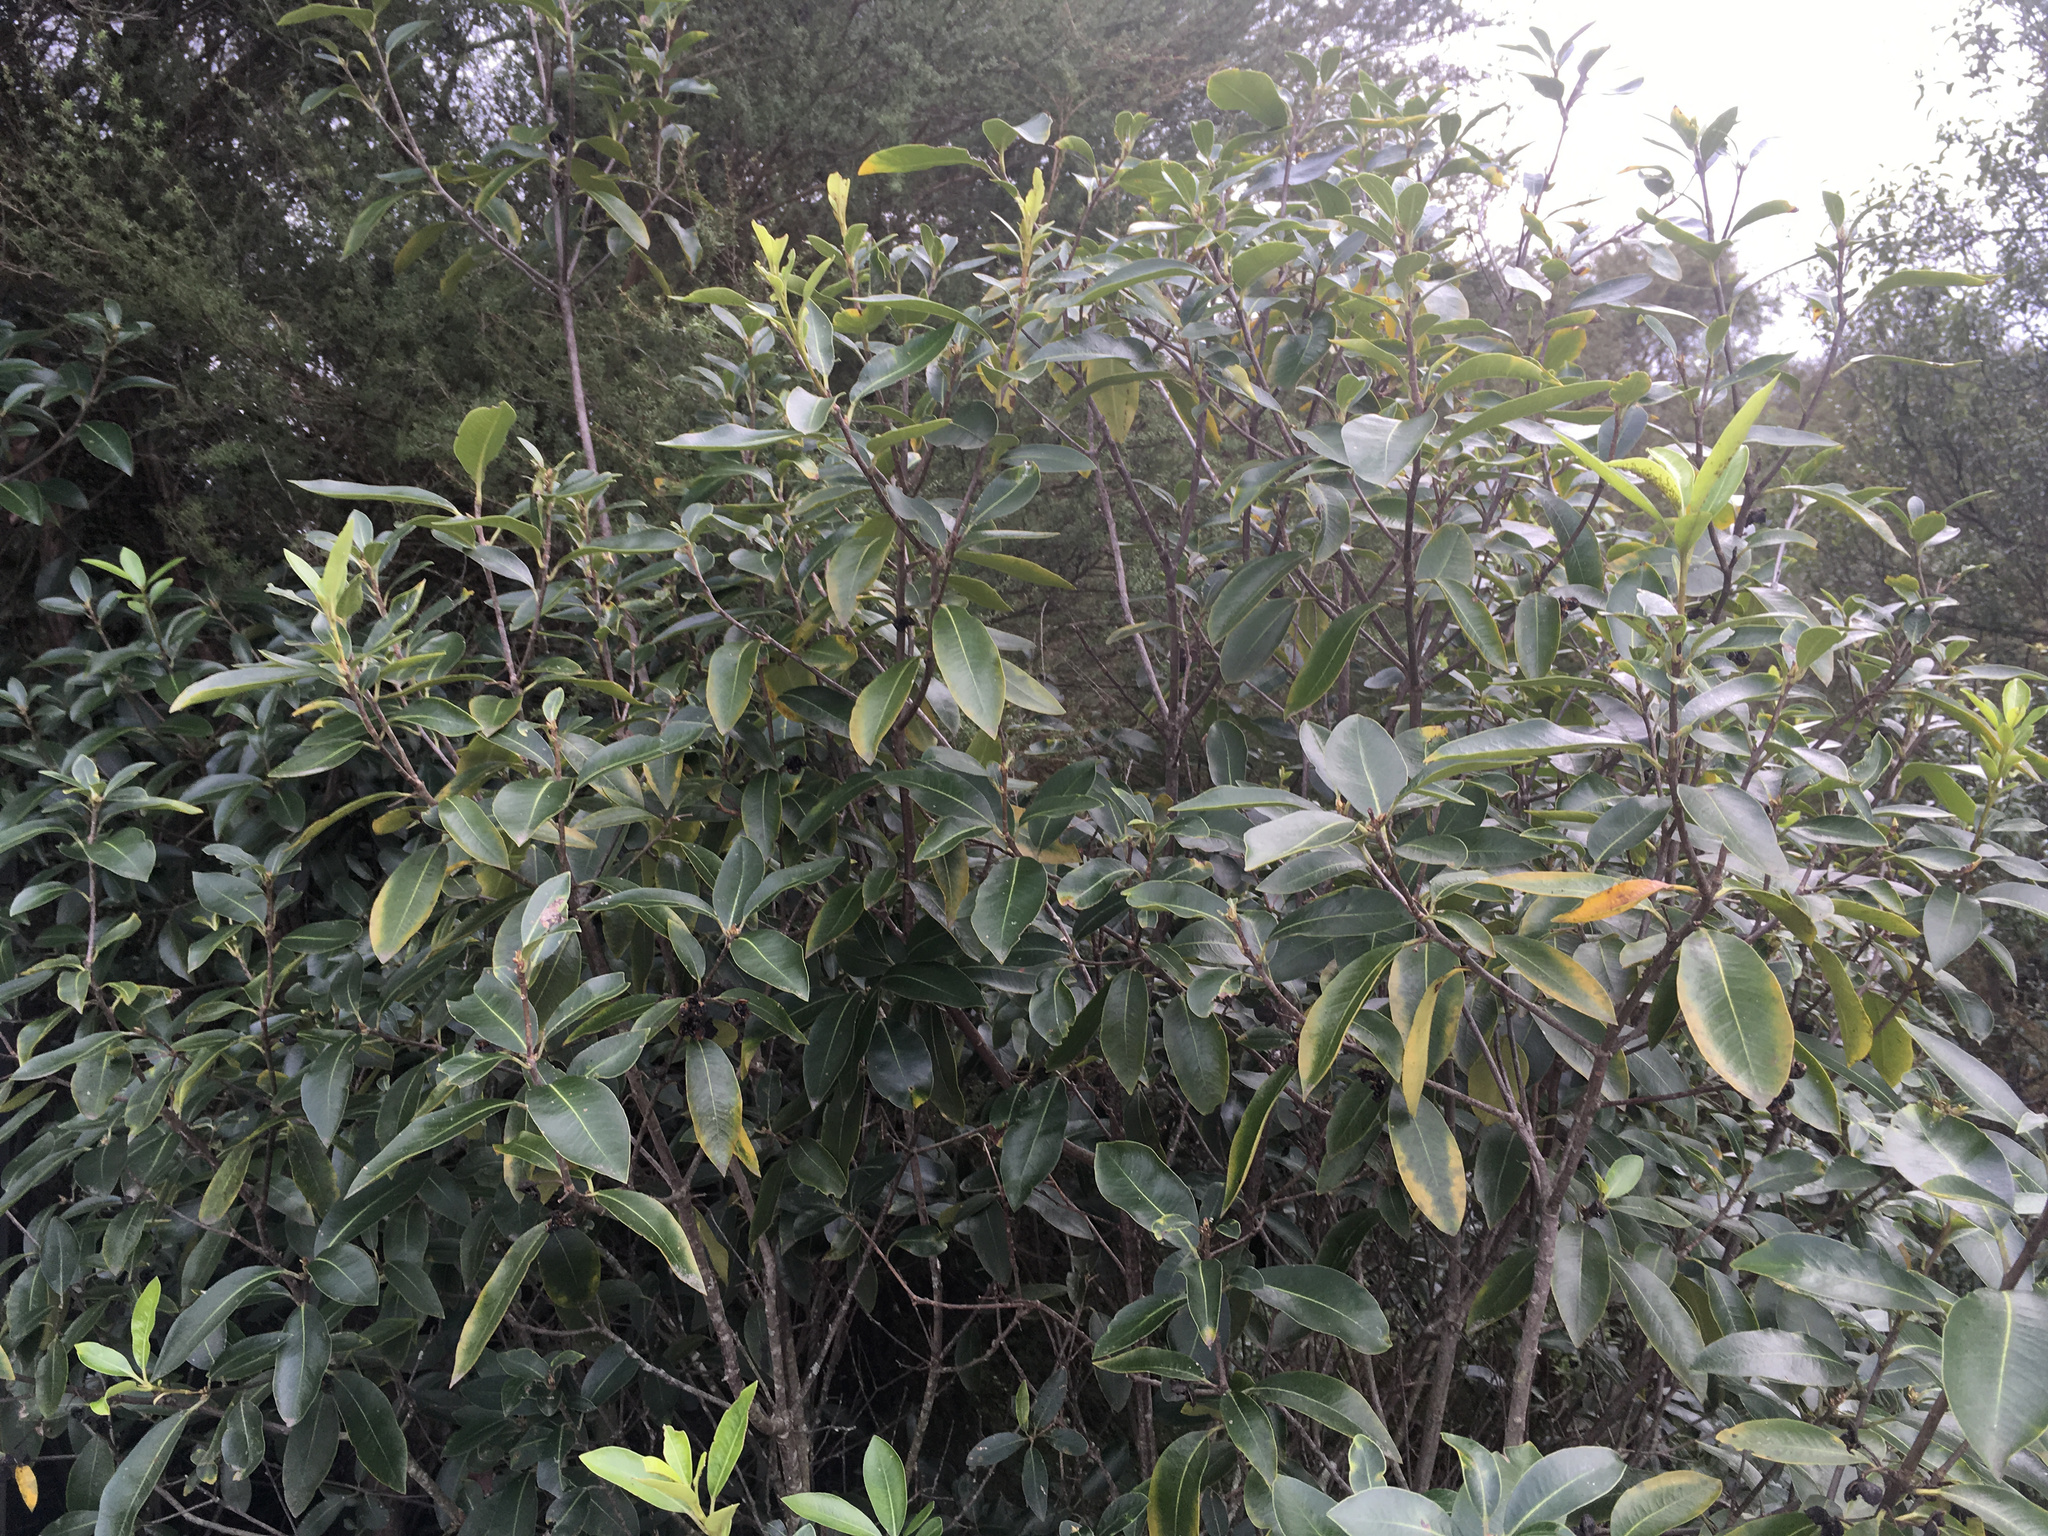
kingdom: Plantae
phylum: Tracheophyta
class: Magnoliopsida
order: Apiales
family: Pittosporaceae
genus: Pittosporum
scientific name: Pittosporum colensoi
